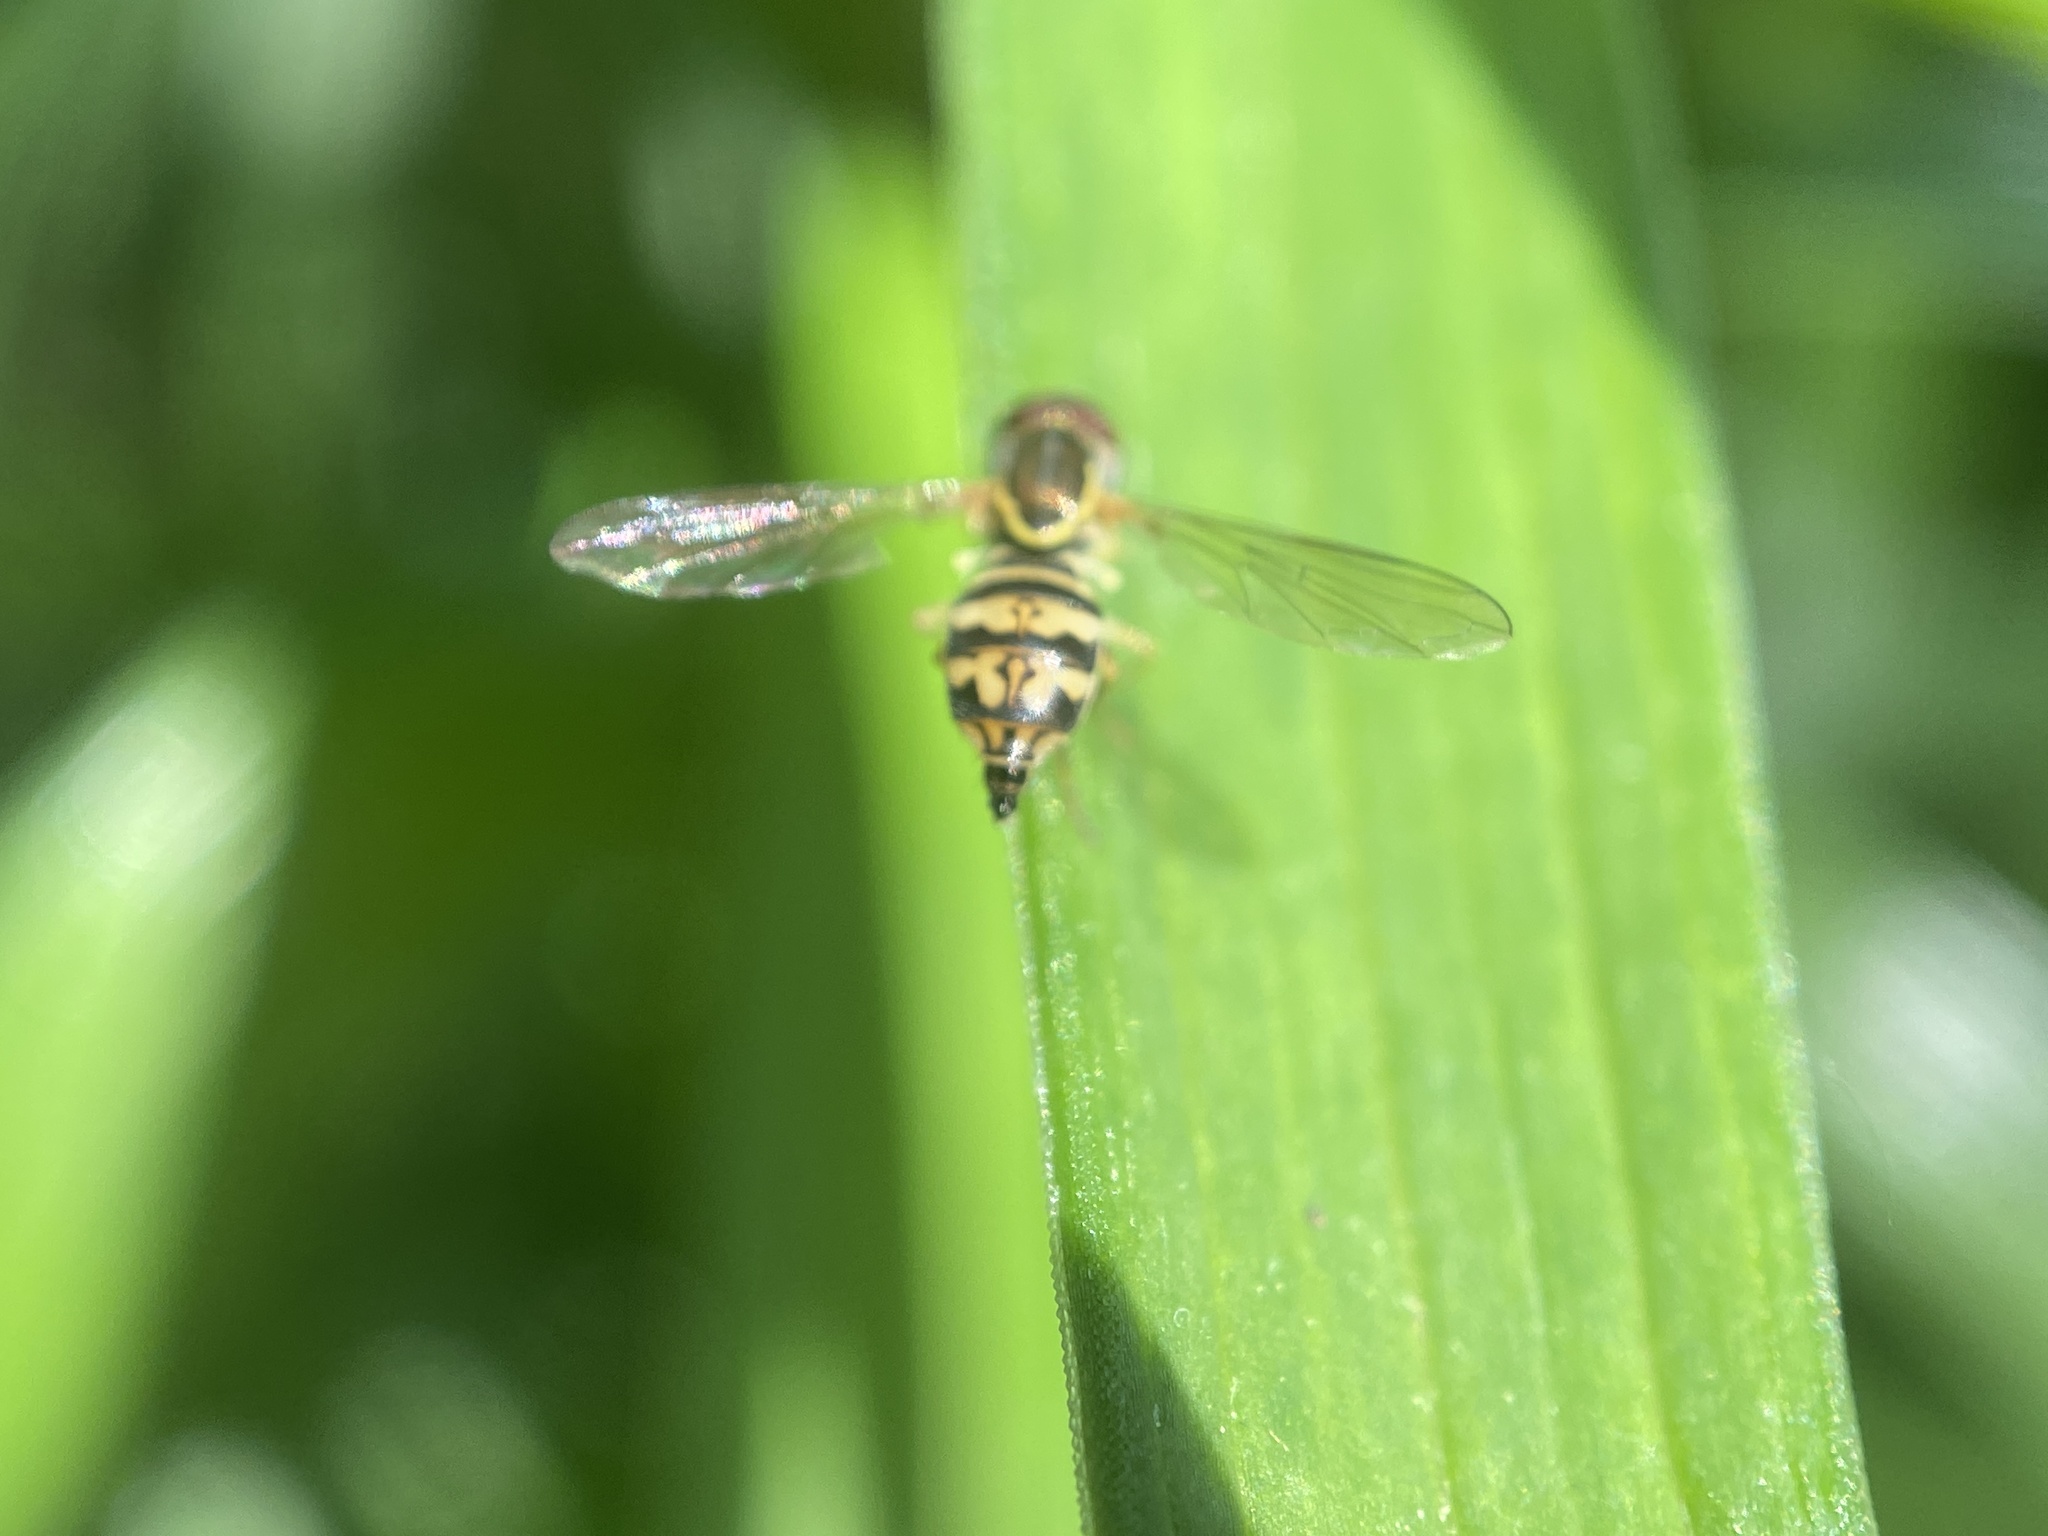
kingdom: Animalia
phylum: Arthropoda
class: Insecta
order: Diptera
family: Syrphidae
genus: Toxomerus
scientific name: Toxomerus geminatus
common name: Eastern calligrapher
